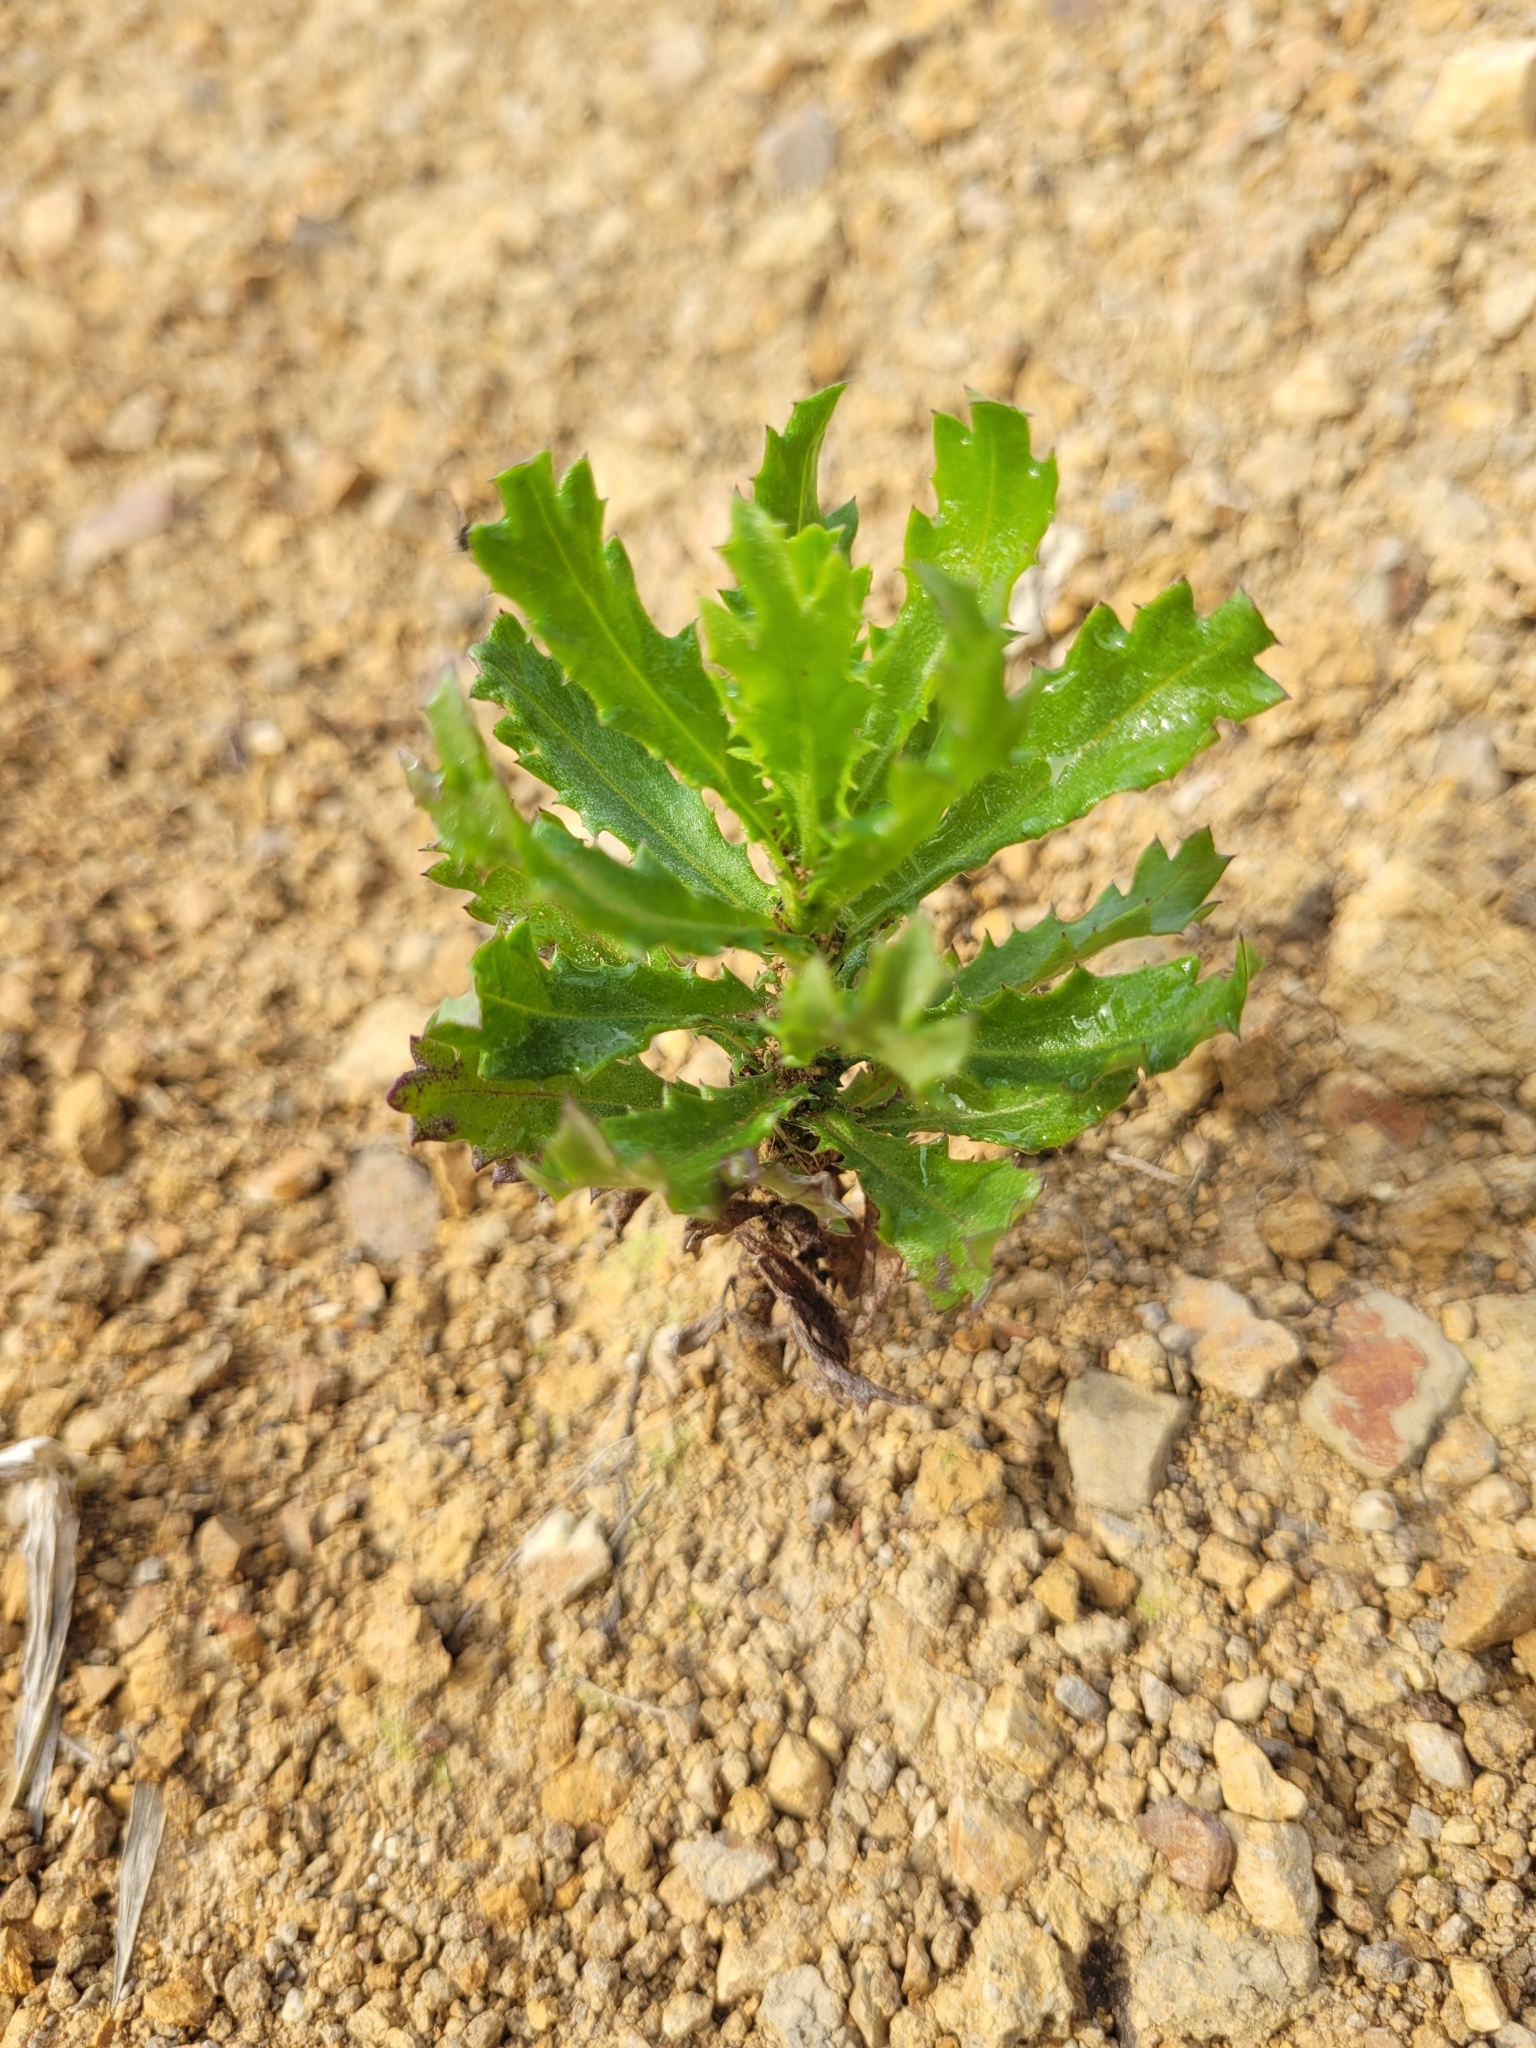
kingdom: Plantae
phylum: Tracheophyta
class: Magnoliopsida
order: Asterales
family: Asteraceae
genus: Senecio
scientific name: Senecio glastifolius
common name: Woad-leaved ragwort
